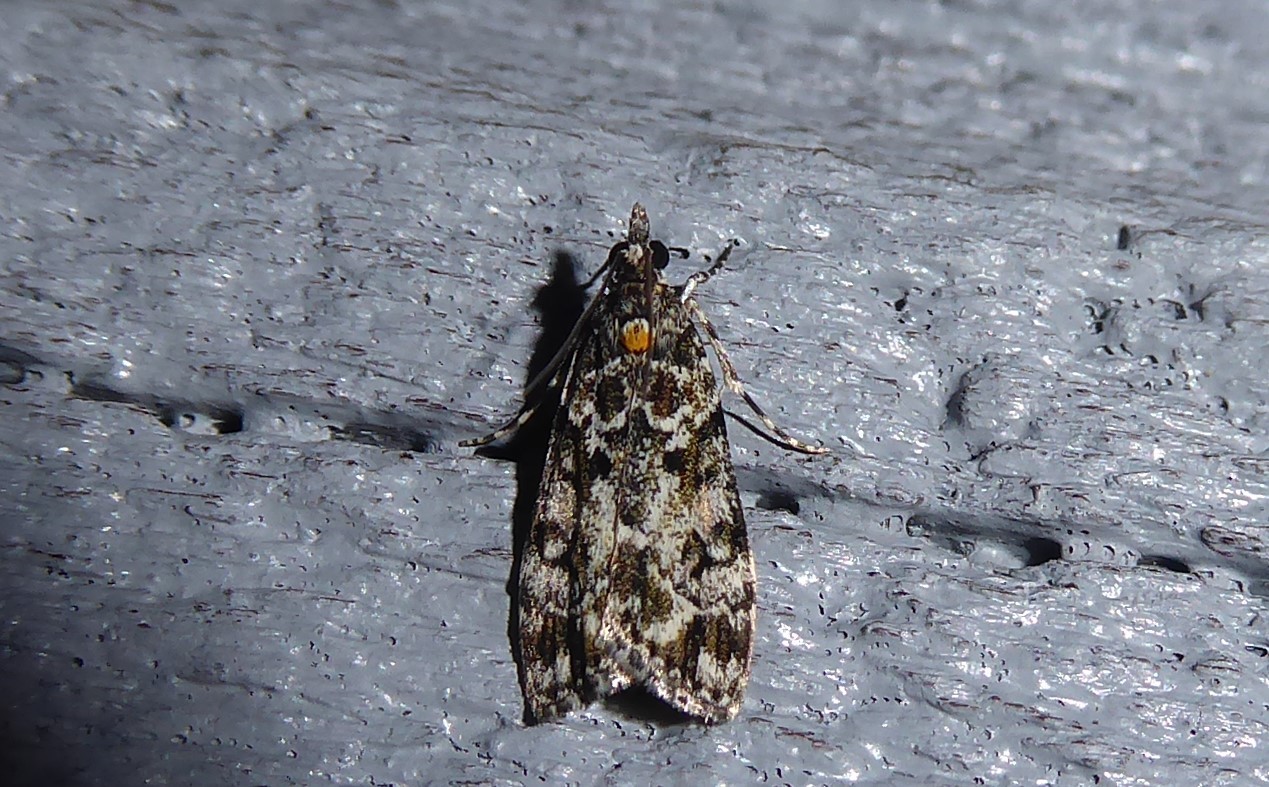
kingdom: Animalia
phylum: Arthropoda
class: Insecta
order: Lepidoptera
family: Crambidae
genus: Eudonia
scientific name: Eudonia
